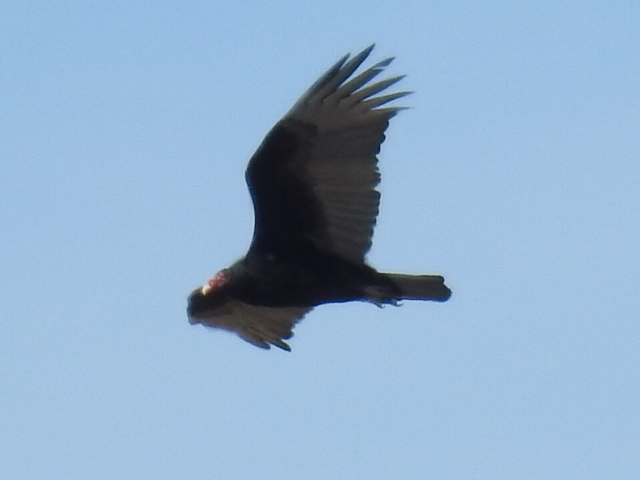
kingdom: Animalia
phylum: Chordata
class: Aves
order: Accipitriformes
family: Cathartidae
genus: Cathartes
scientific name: Cathartes aura
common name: Turkey vulture
